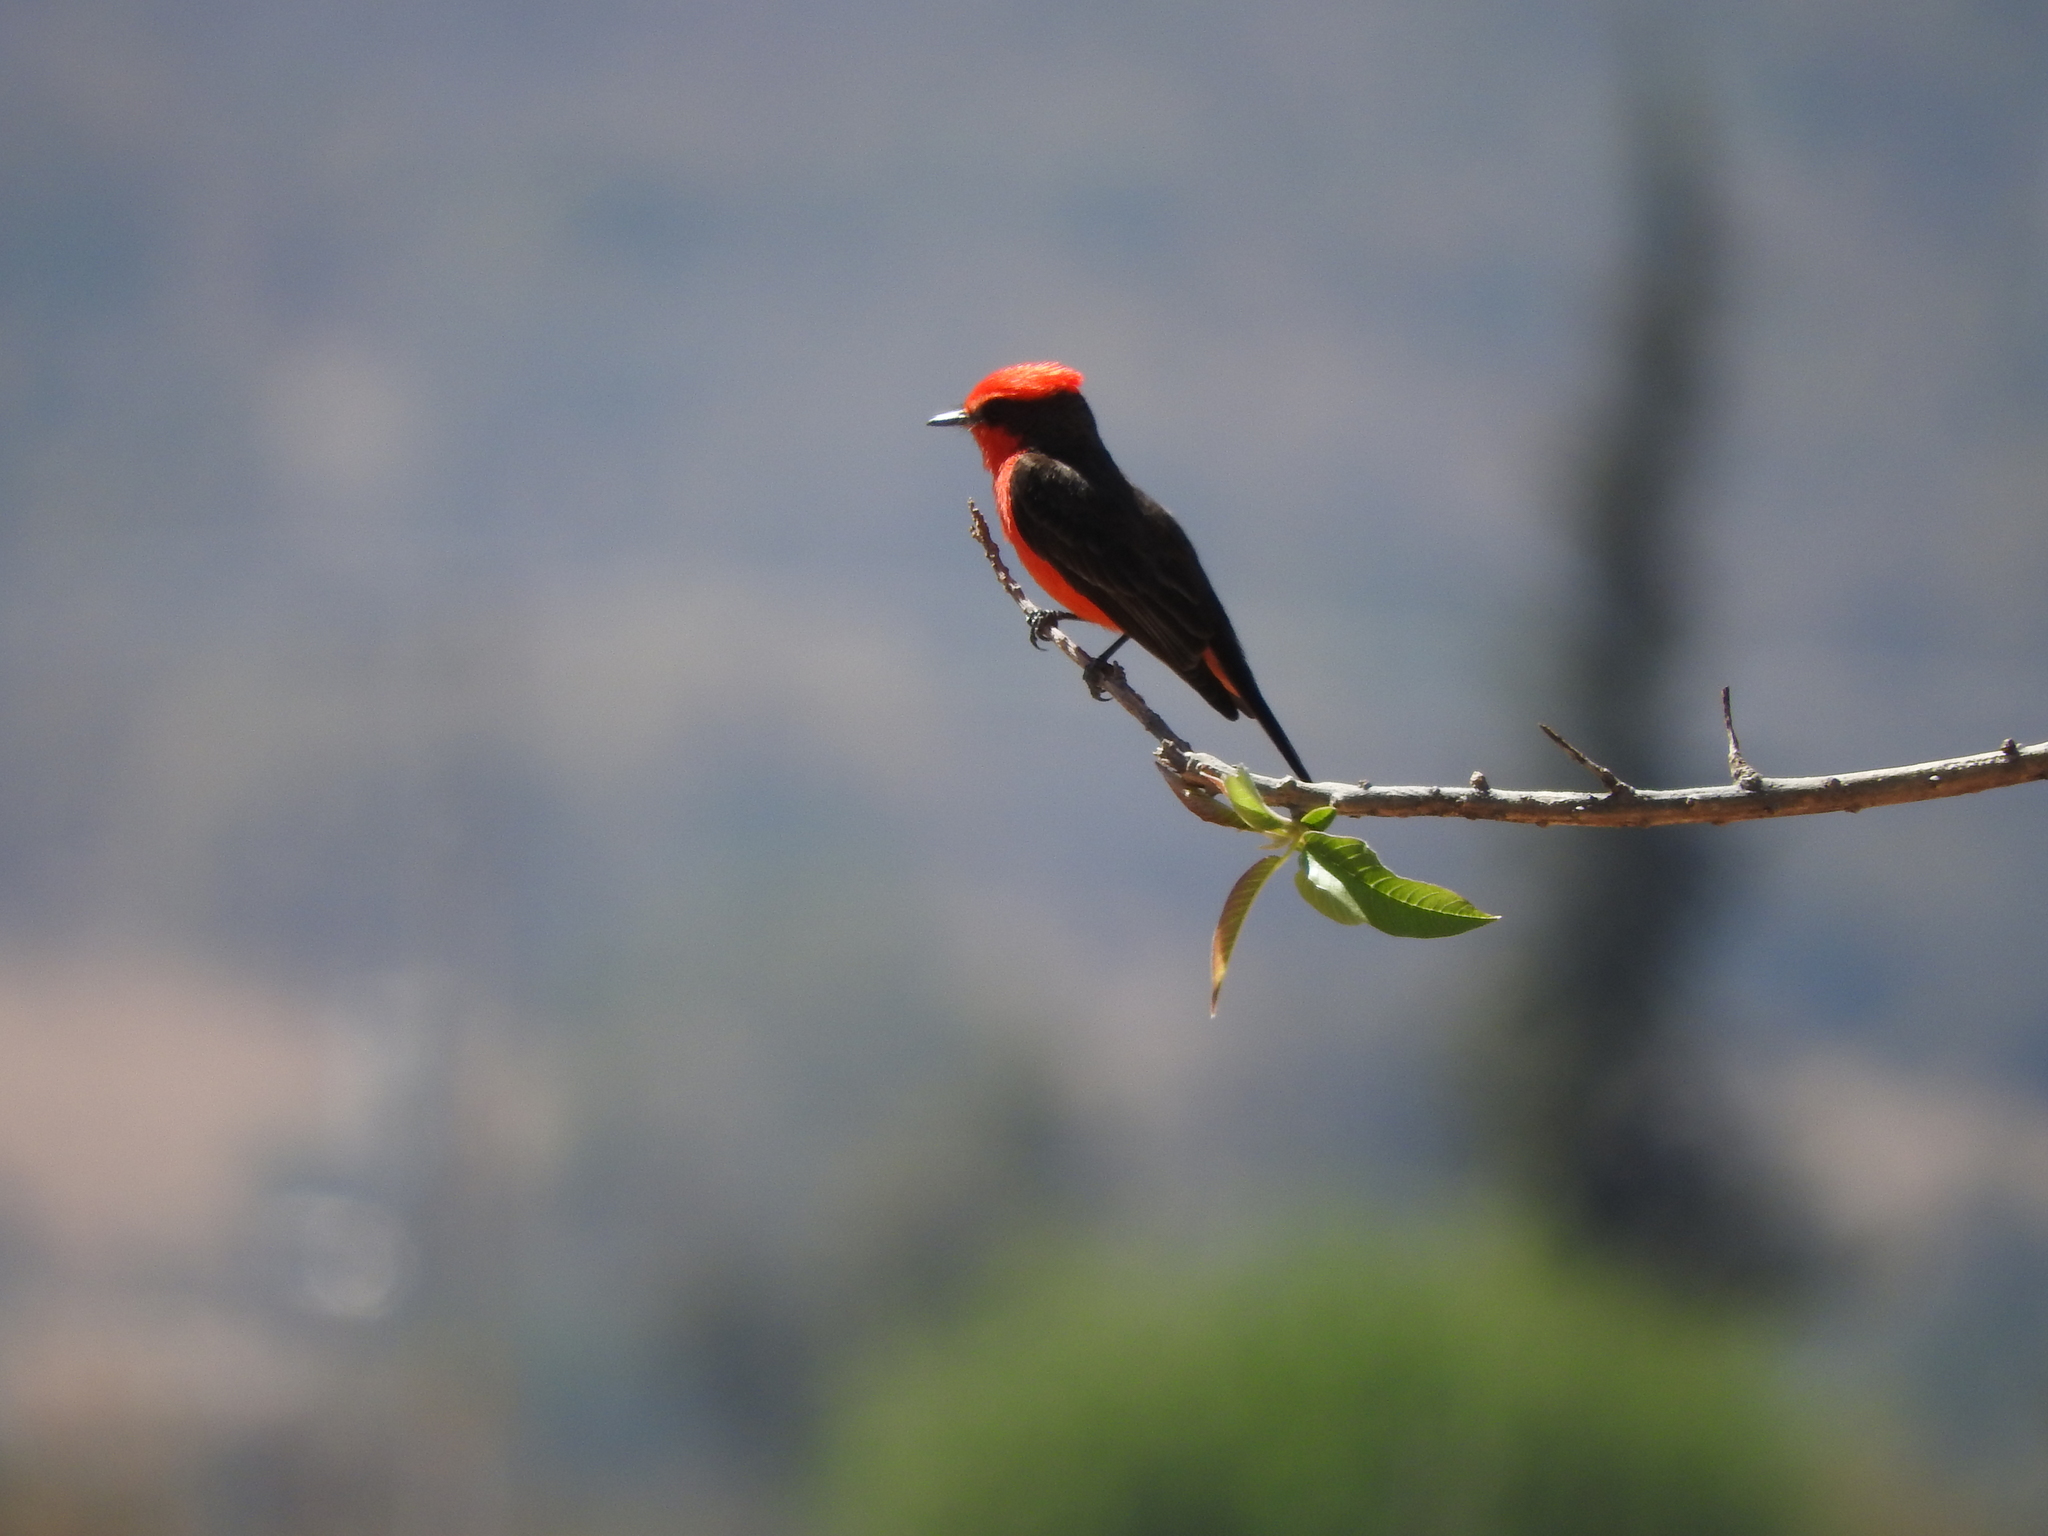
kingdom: Animalia
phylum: Chordata
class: Aves
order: Passeriformes
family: Tyrannidae
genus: Pyrocephalus
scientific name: Pyrocephalus rubinus
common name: Vermilion flycatcher
